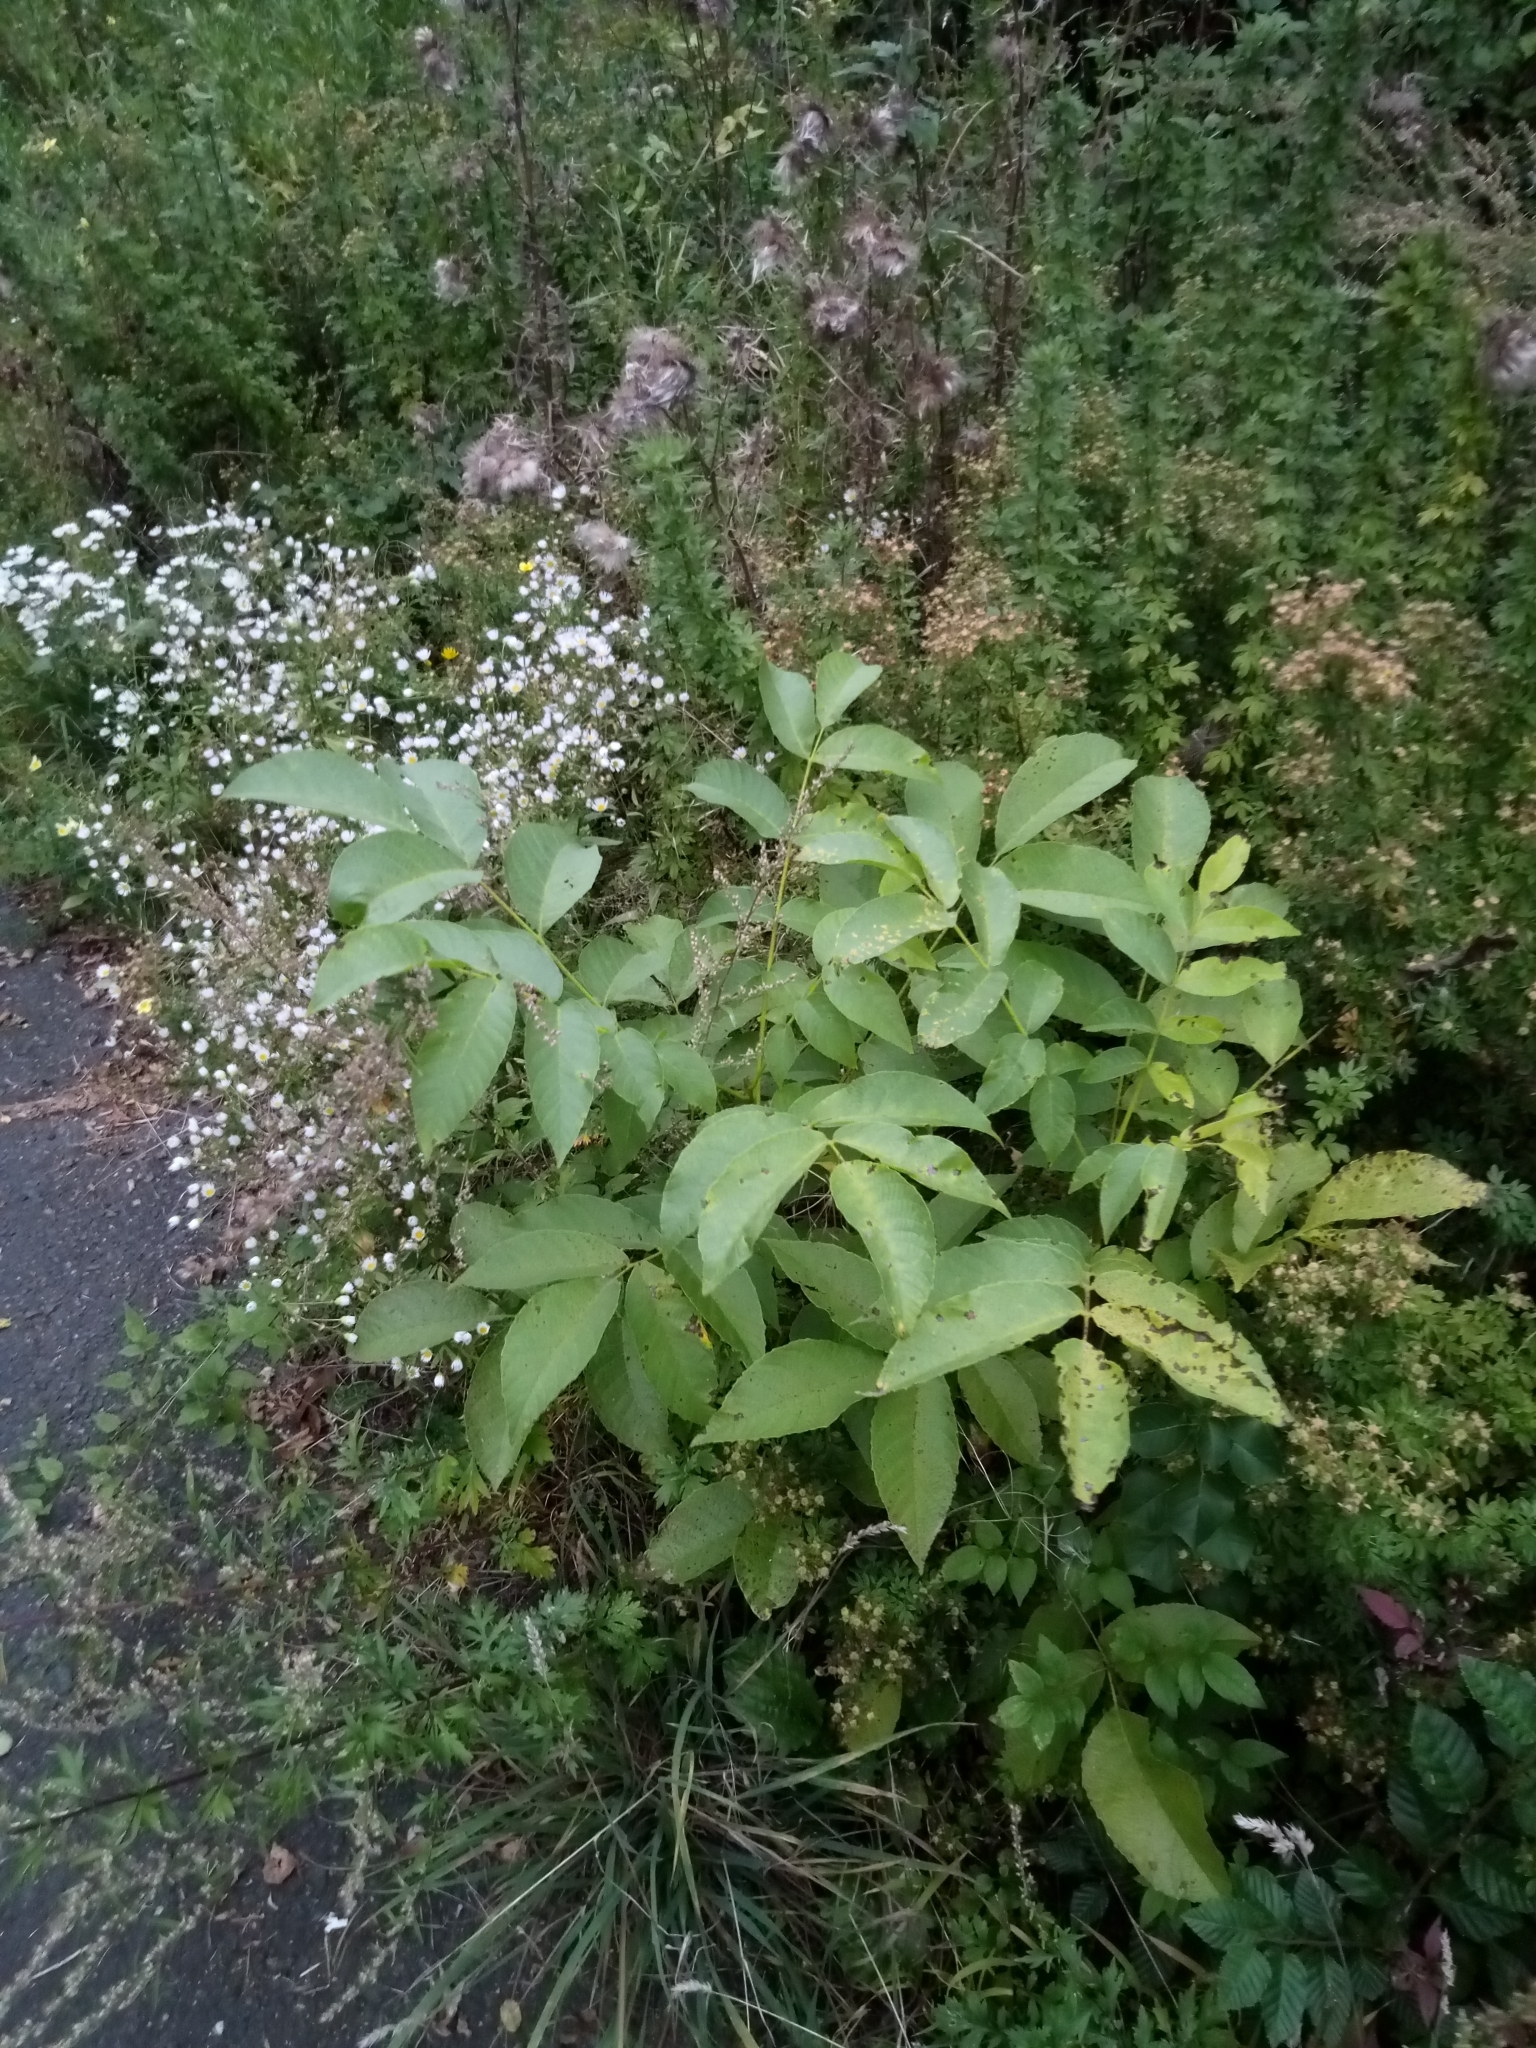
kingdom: Plantae
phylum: Tracheophyta
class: Magnoliopsida
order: Fagales
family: Juglandaceae
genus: Juglans
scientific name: Juglans regia
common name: Walnut
